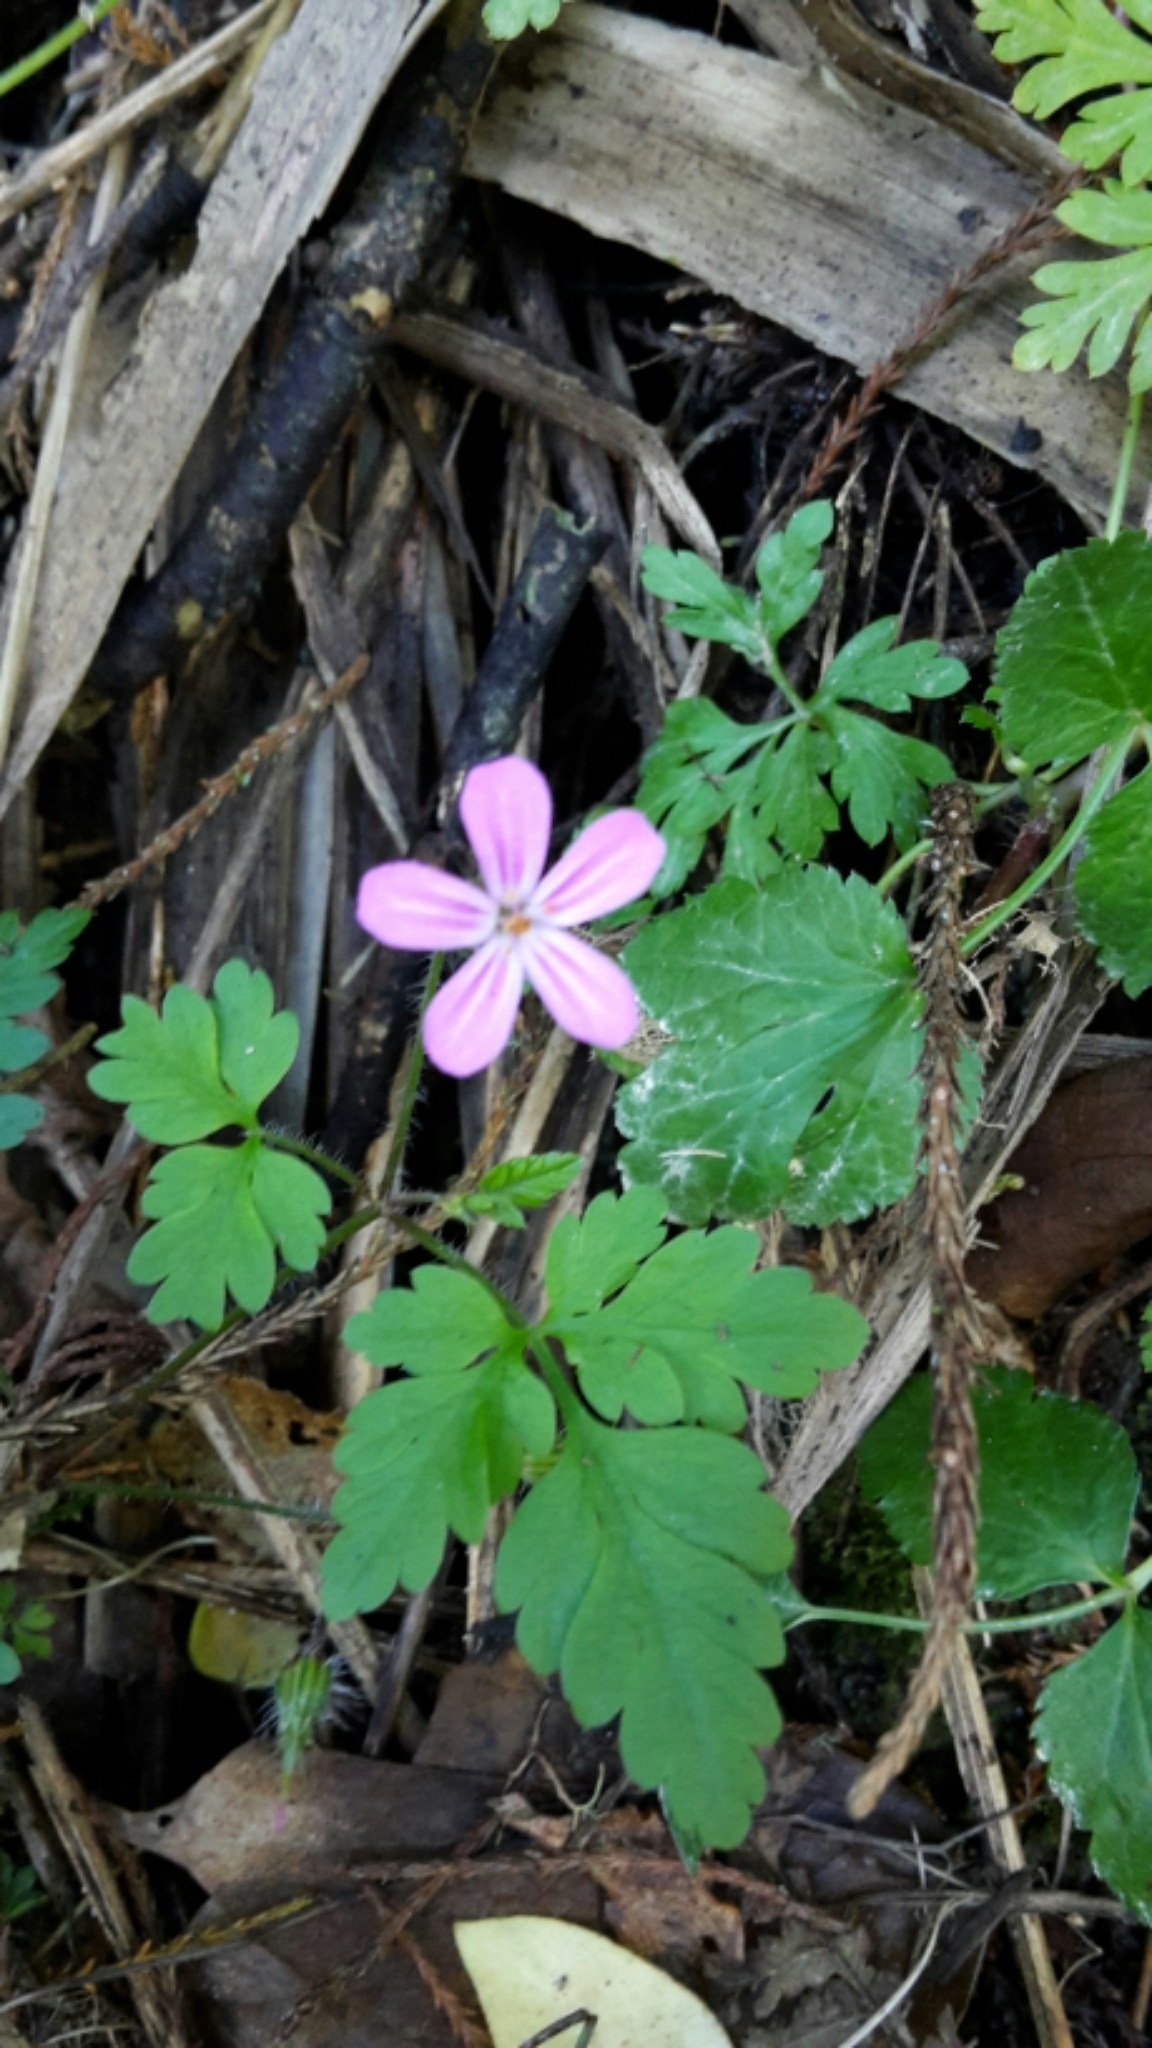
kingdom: Plantae
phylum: Tracheophyta
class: Magnoliopsida
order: Geraniales
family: Geraniaceae
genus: Geranium
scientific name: Geranium robertianum
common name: Herb-robert
